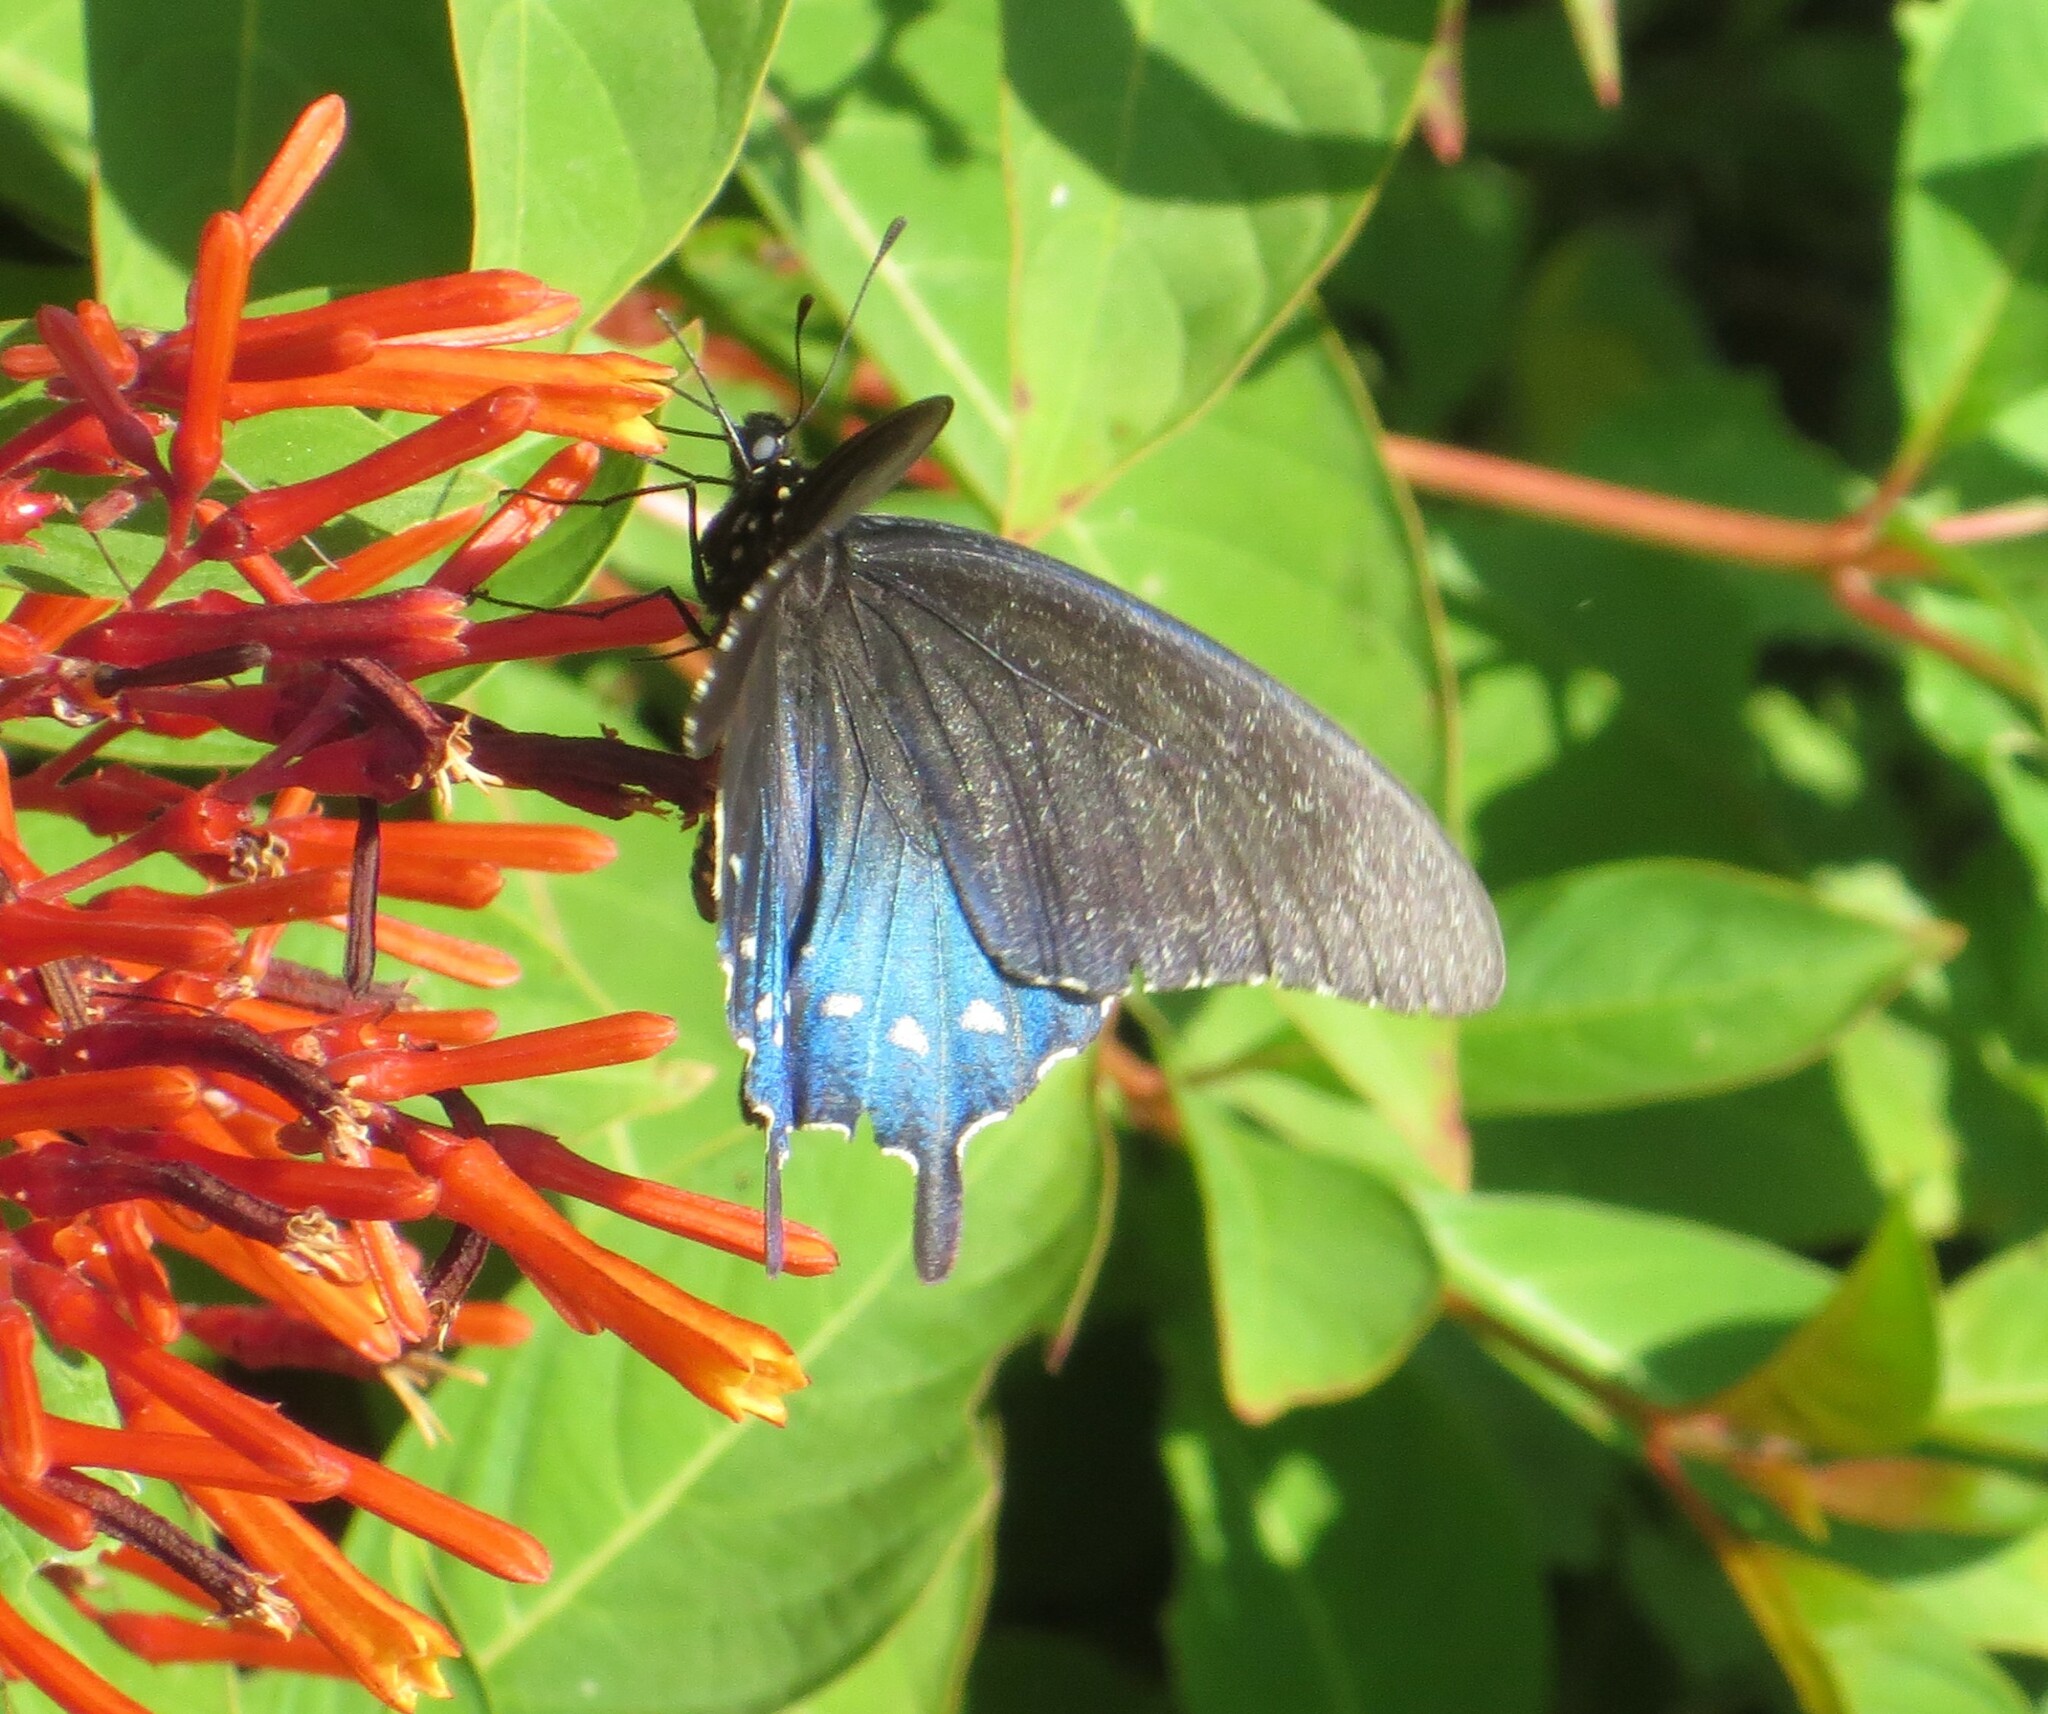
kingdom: Animalia
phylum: Arthropoda
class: Insecta
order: Lepidoptera
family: Papilionidae
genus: Battus
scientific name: Battus philenor
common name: Pipevine swallowtail
